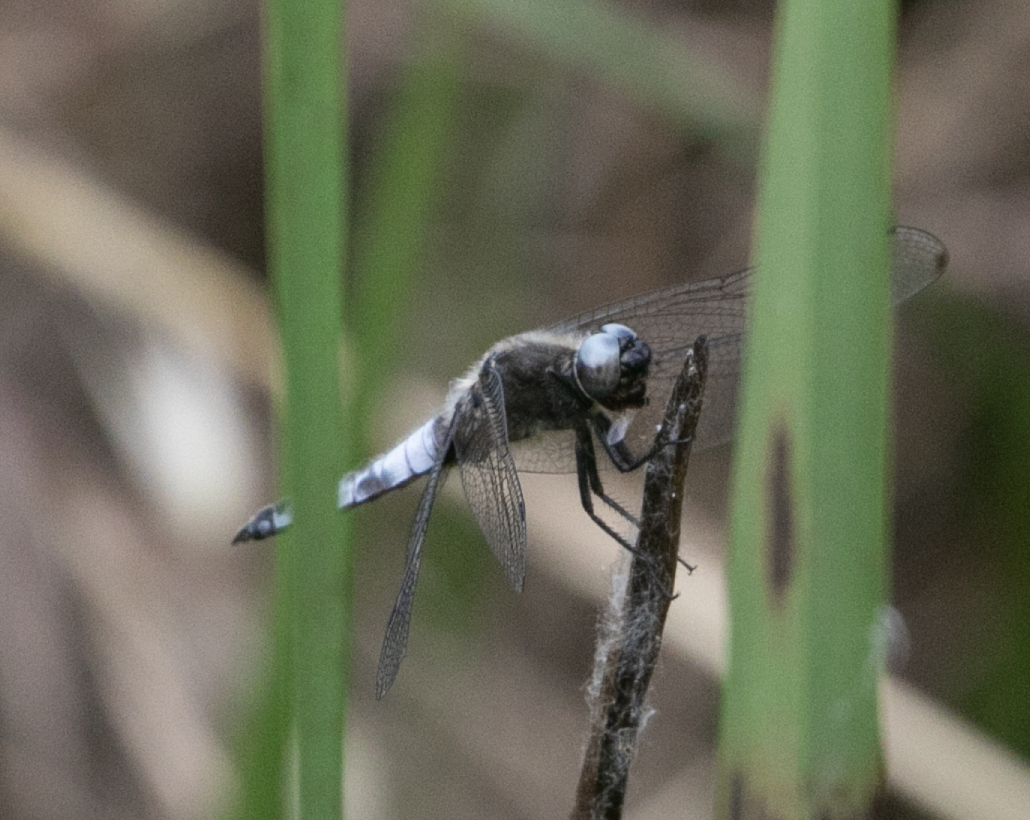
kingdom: Animalia
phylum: Arthropoda
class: Insecta
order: Odonata
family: Libellulidae
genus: Libellula
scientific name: Libellula fulva
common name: Blue chaser
